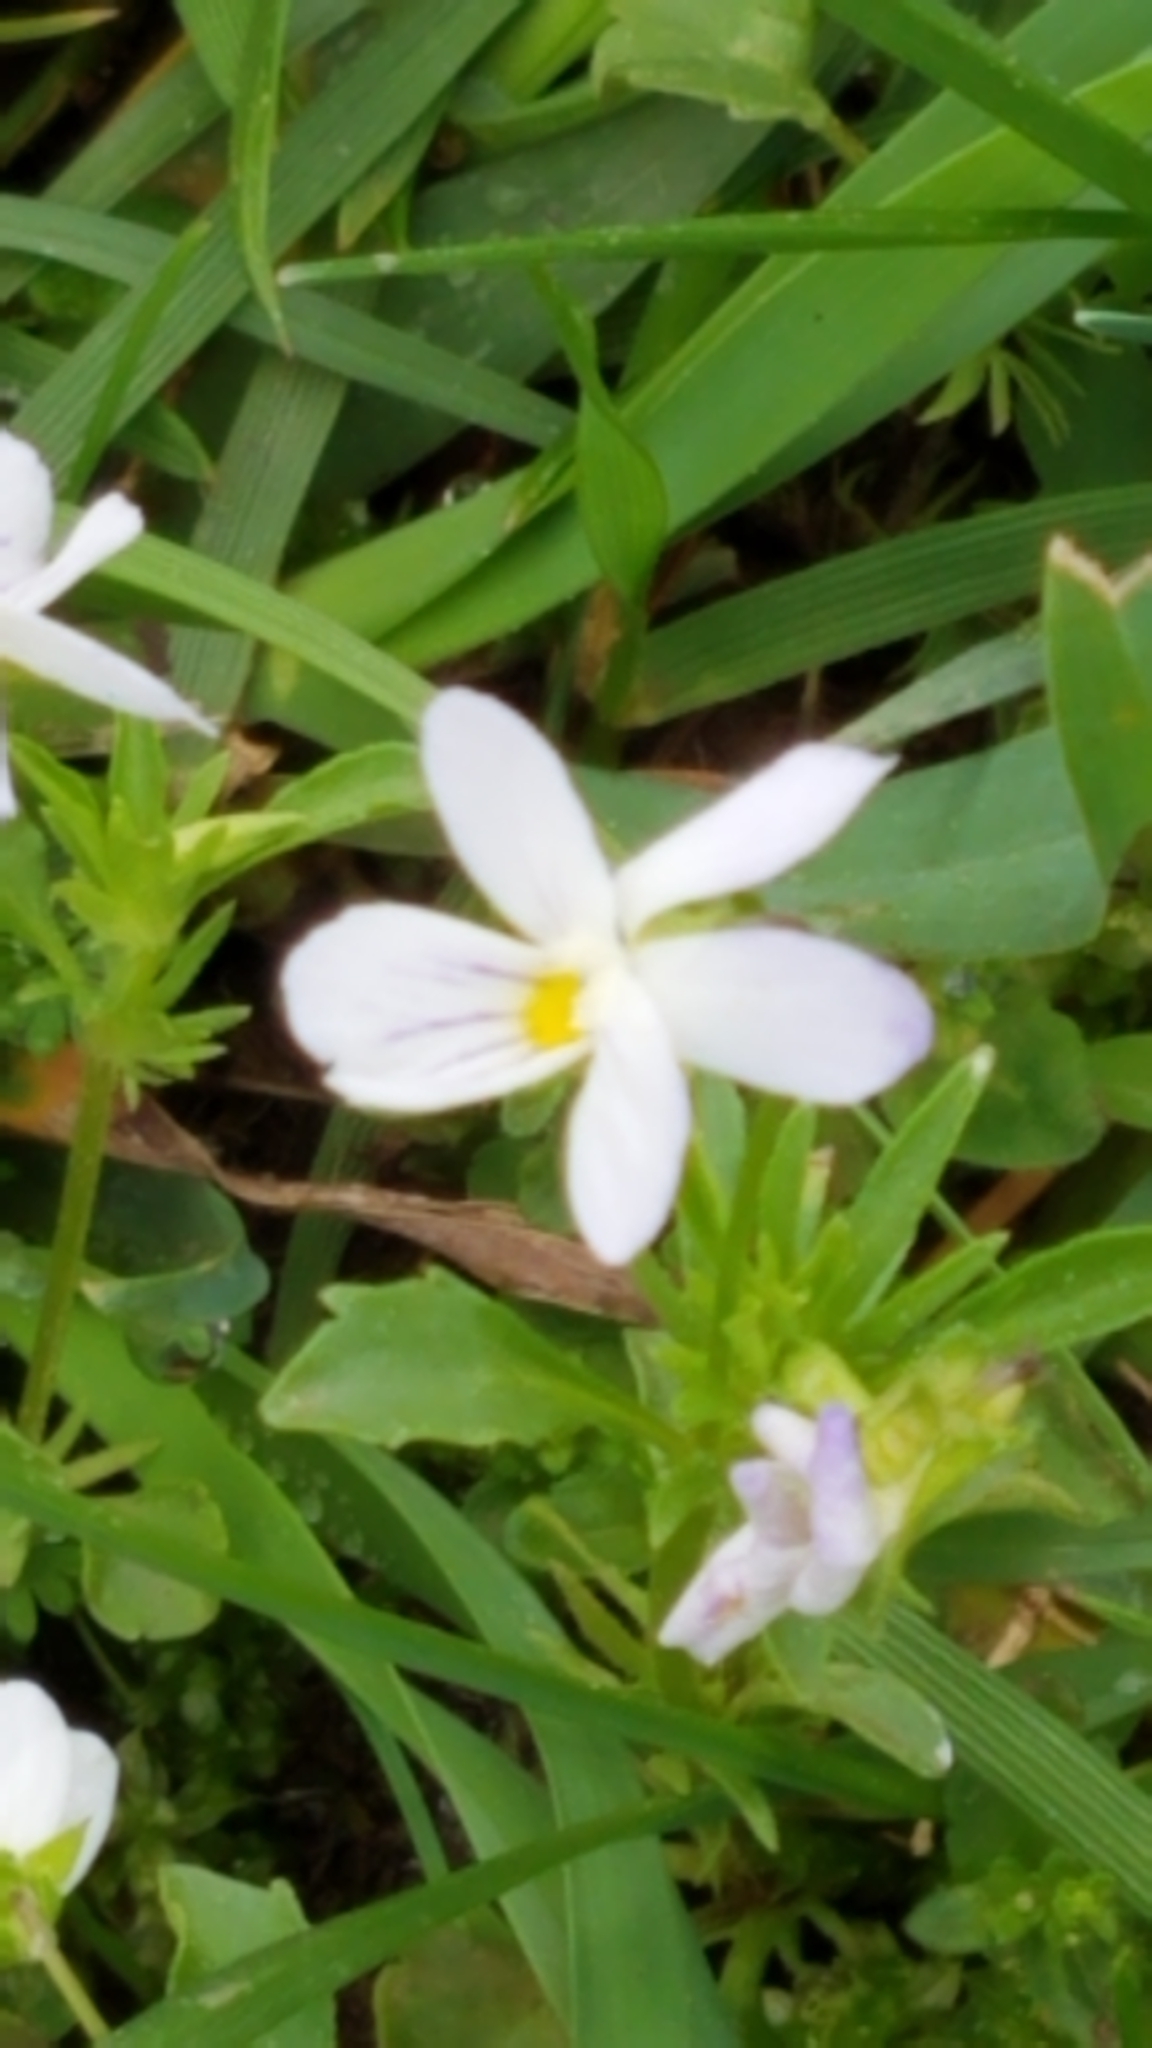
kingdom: Plantae
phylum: Tracheophyta
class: Magnoliopsida
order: Malpighiales
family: Violaceae
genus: Viola
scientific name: Viola rafinesquei
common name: American field pansy
